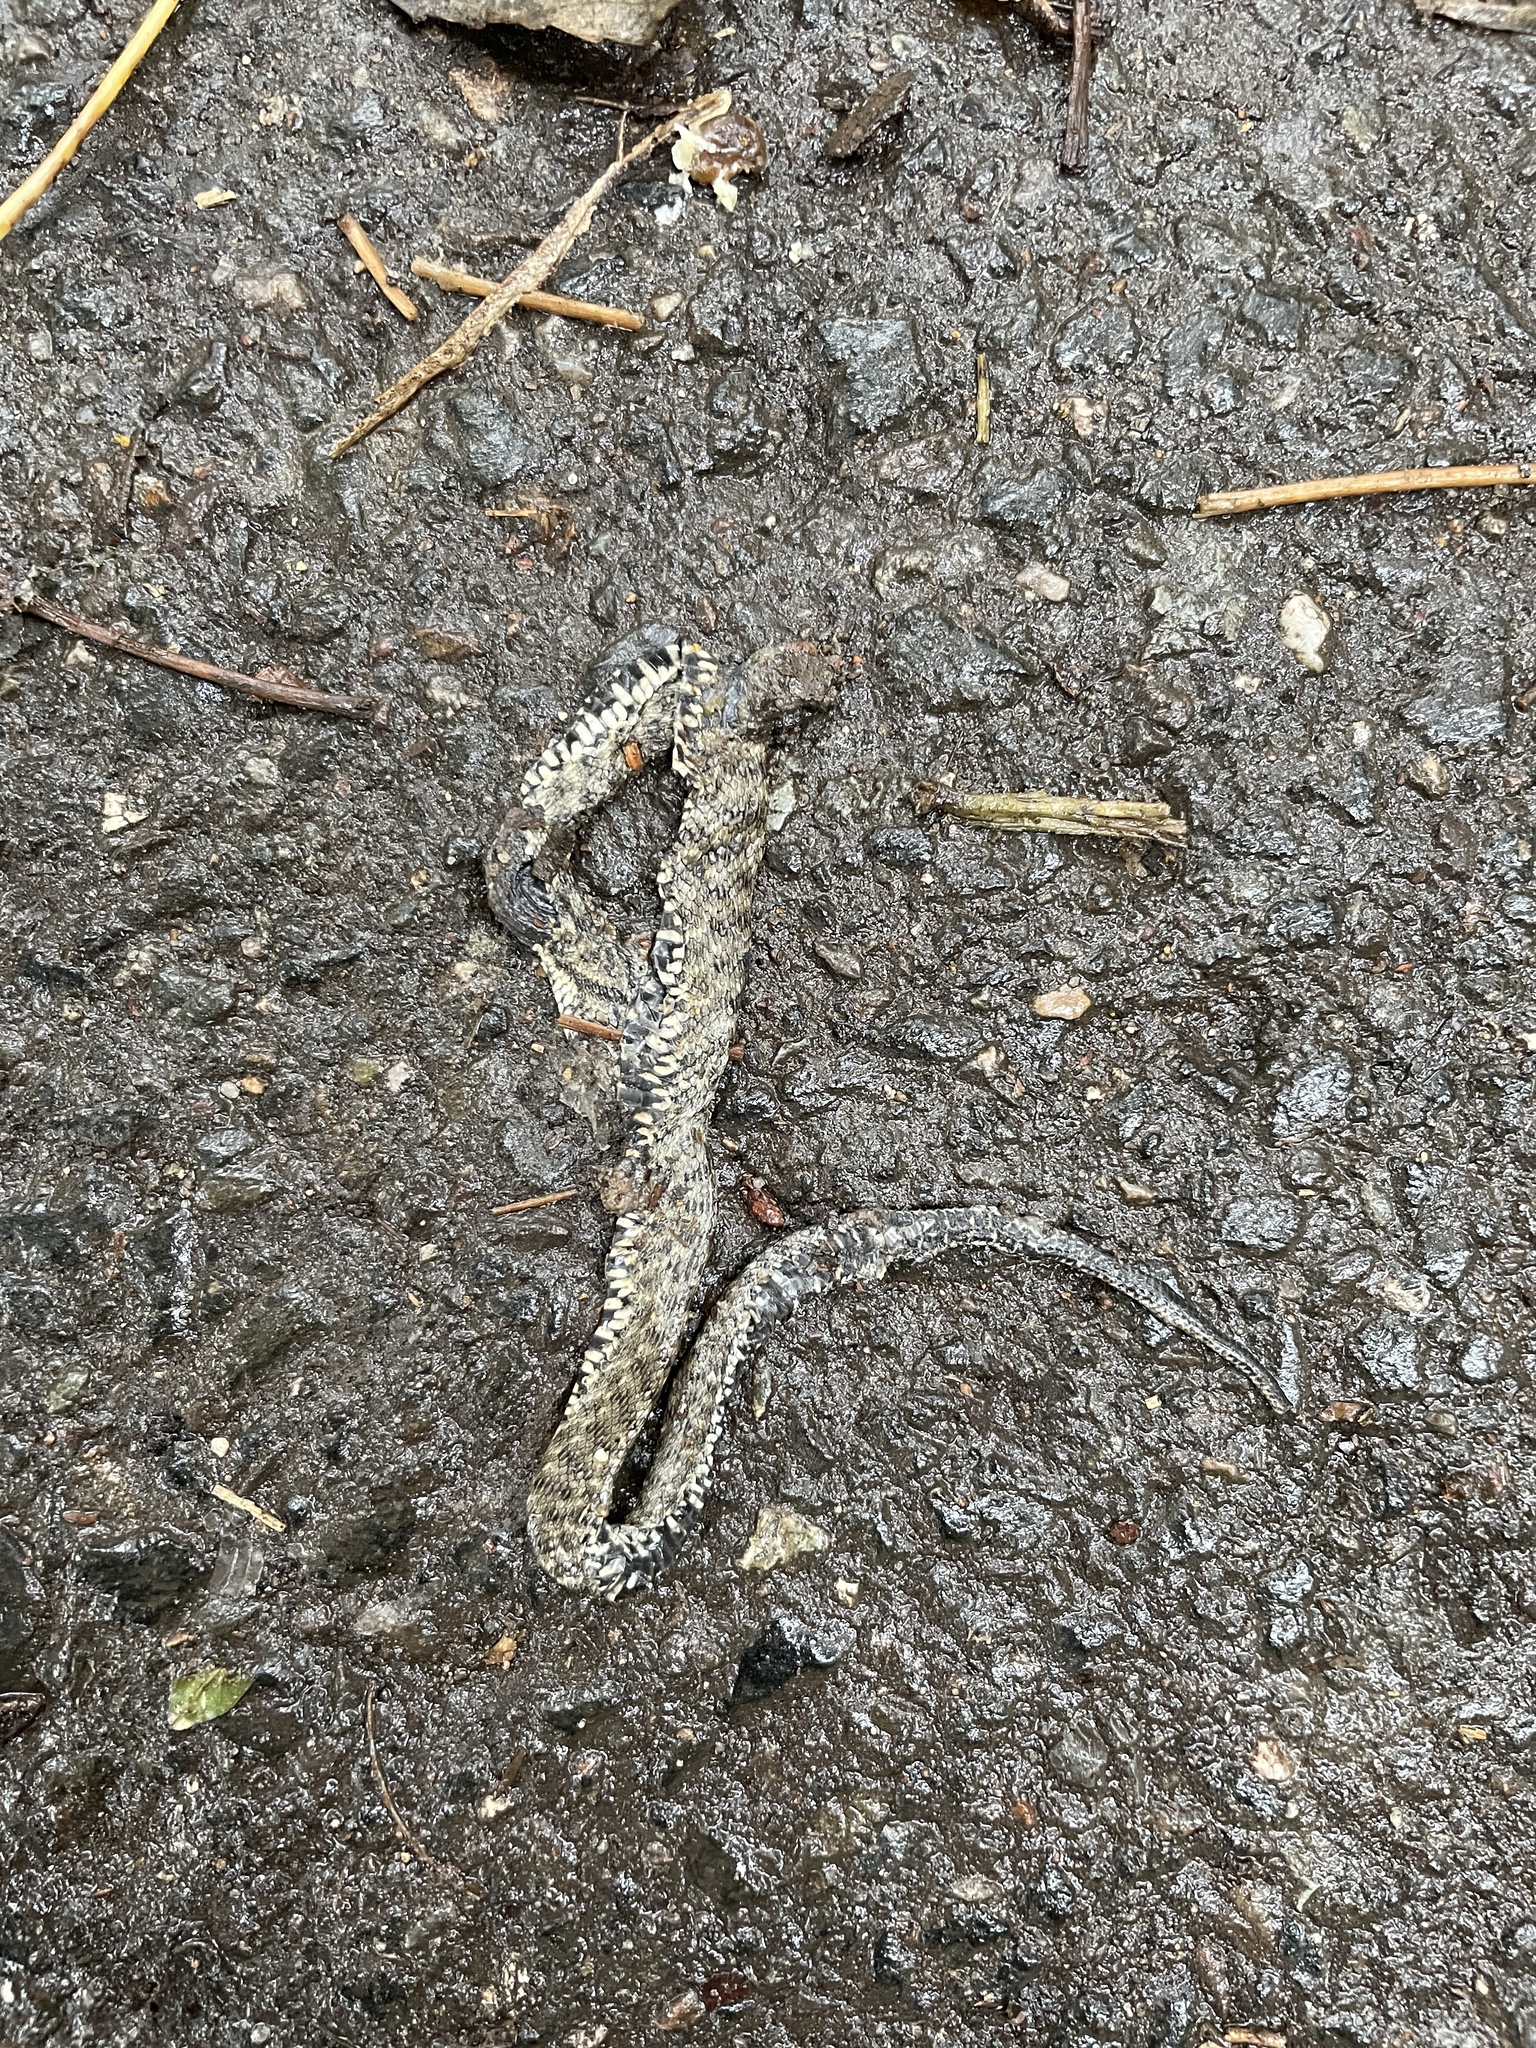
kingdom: Animalia
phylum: Chordata
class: Squamata
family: Colubridae
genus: Natrix
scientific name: Natrix tessellata
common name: Dice snake
